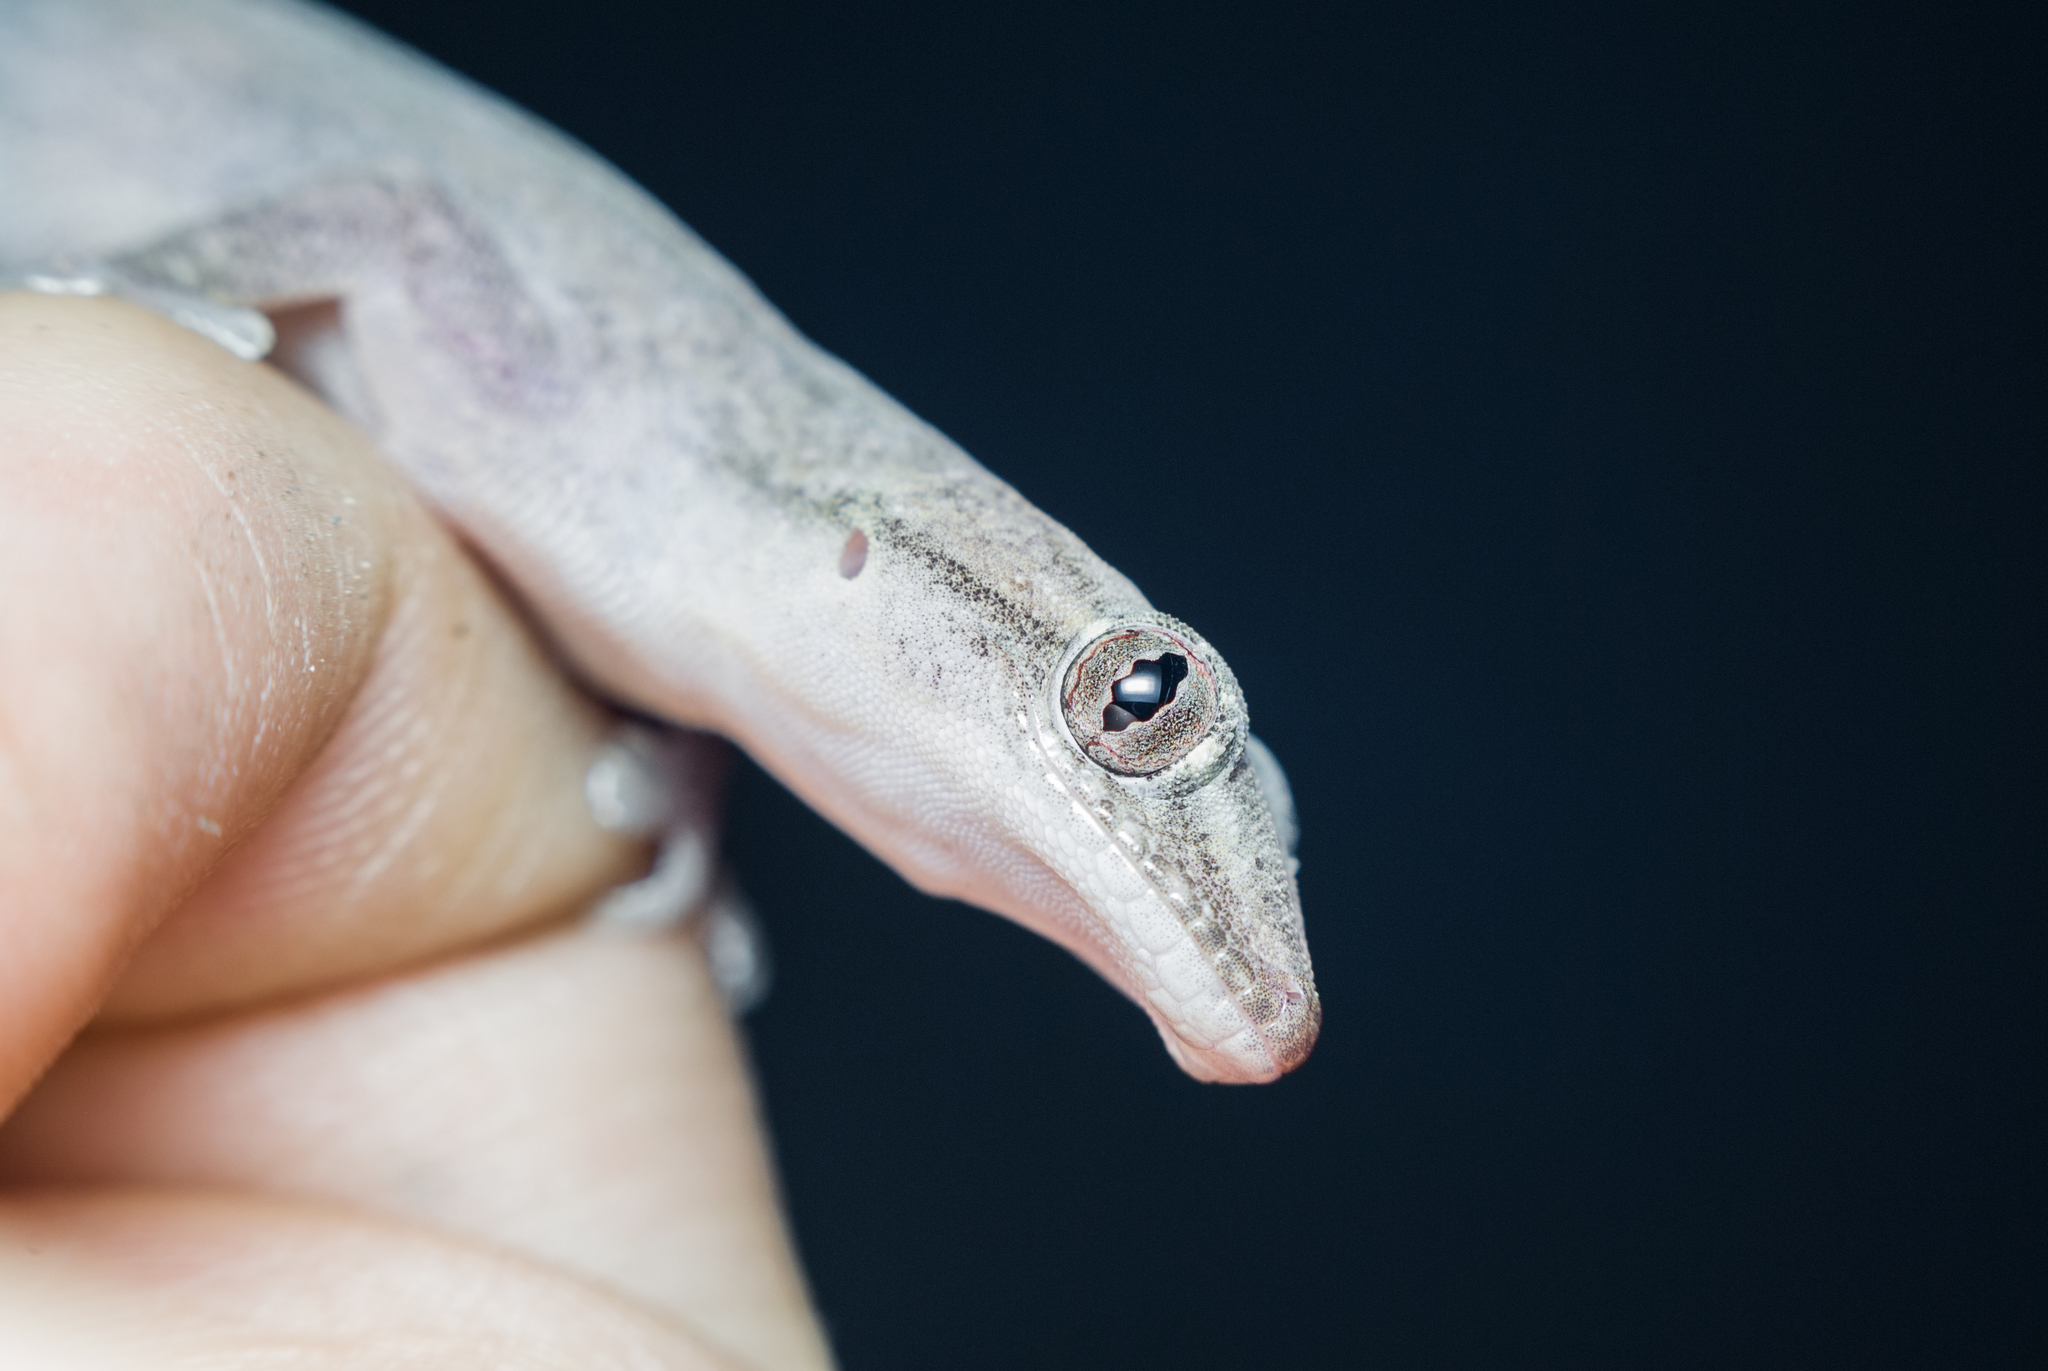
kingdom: Animalia
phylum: Chordata
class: Squamata
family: Gekkonidae
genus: Hemidactylus
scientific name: Hemidactylus frenatus
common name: Common house gecko
